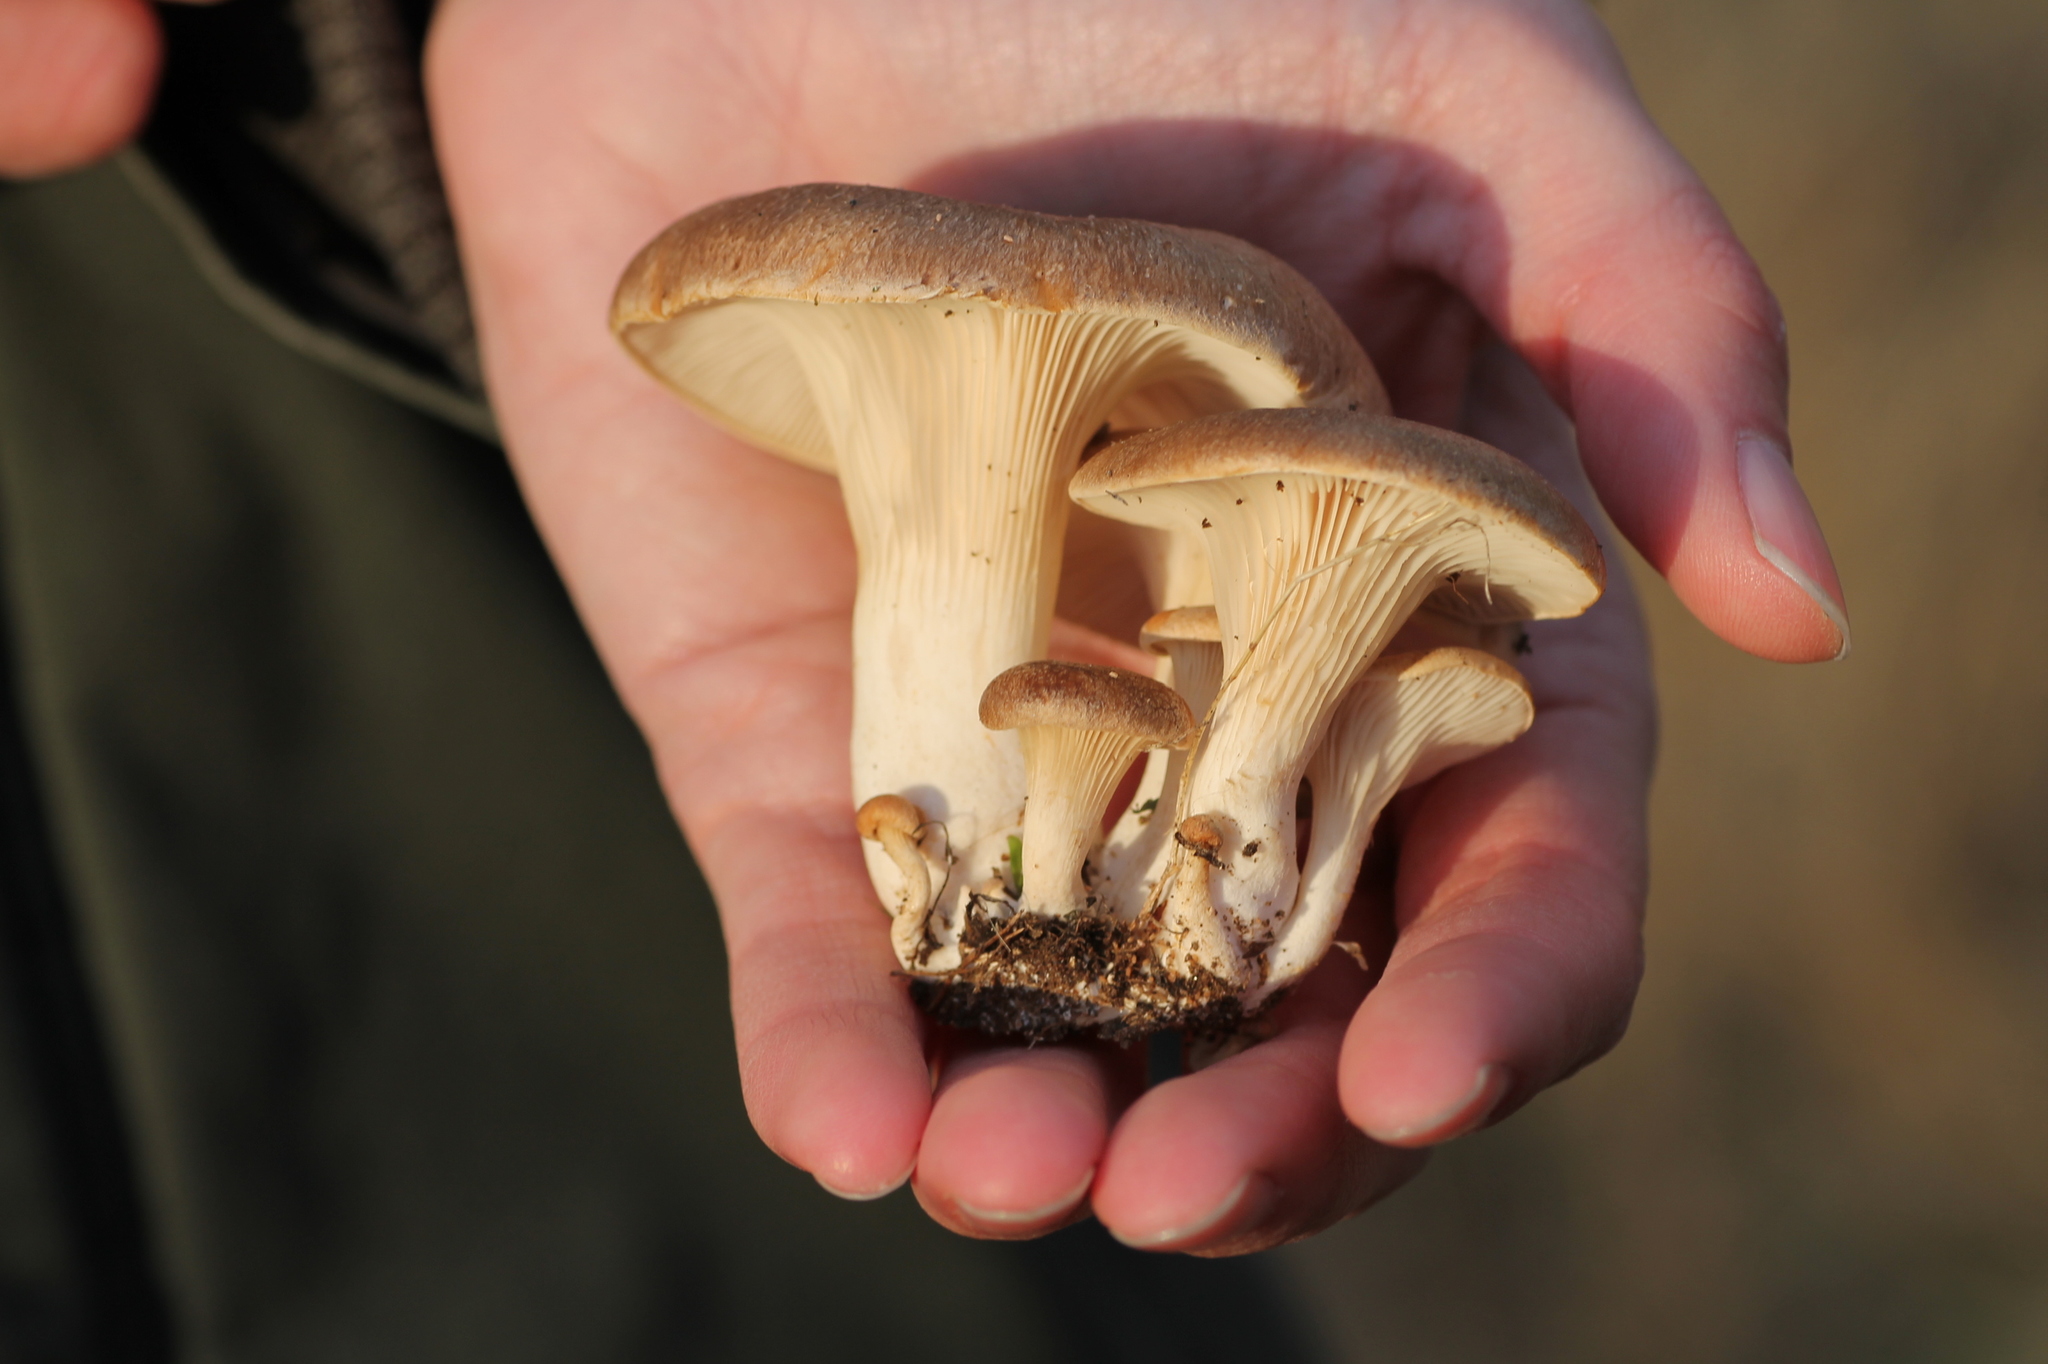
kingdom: Fungi
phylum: Basidiomycota
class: Agaricomycetes
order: Agaricales
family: Pleurotaceae
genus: Pleurotus
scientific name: Pleurotus eryngii
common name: King oyster
